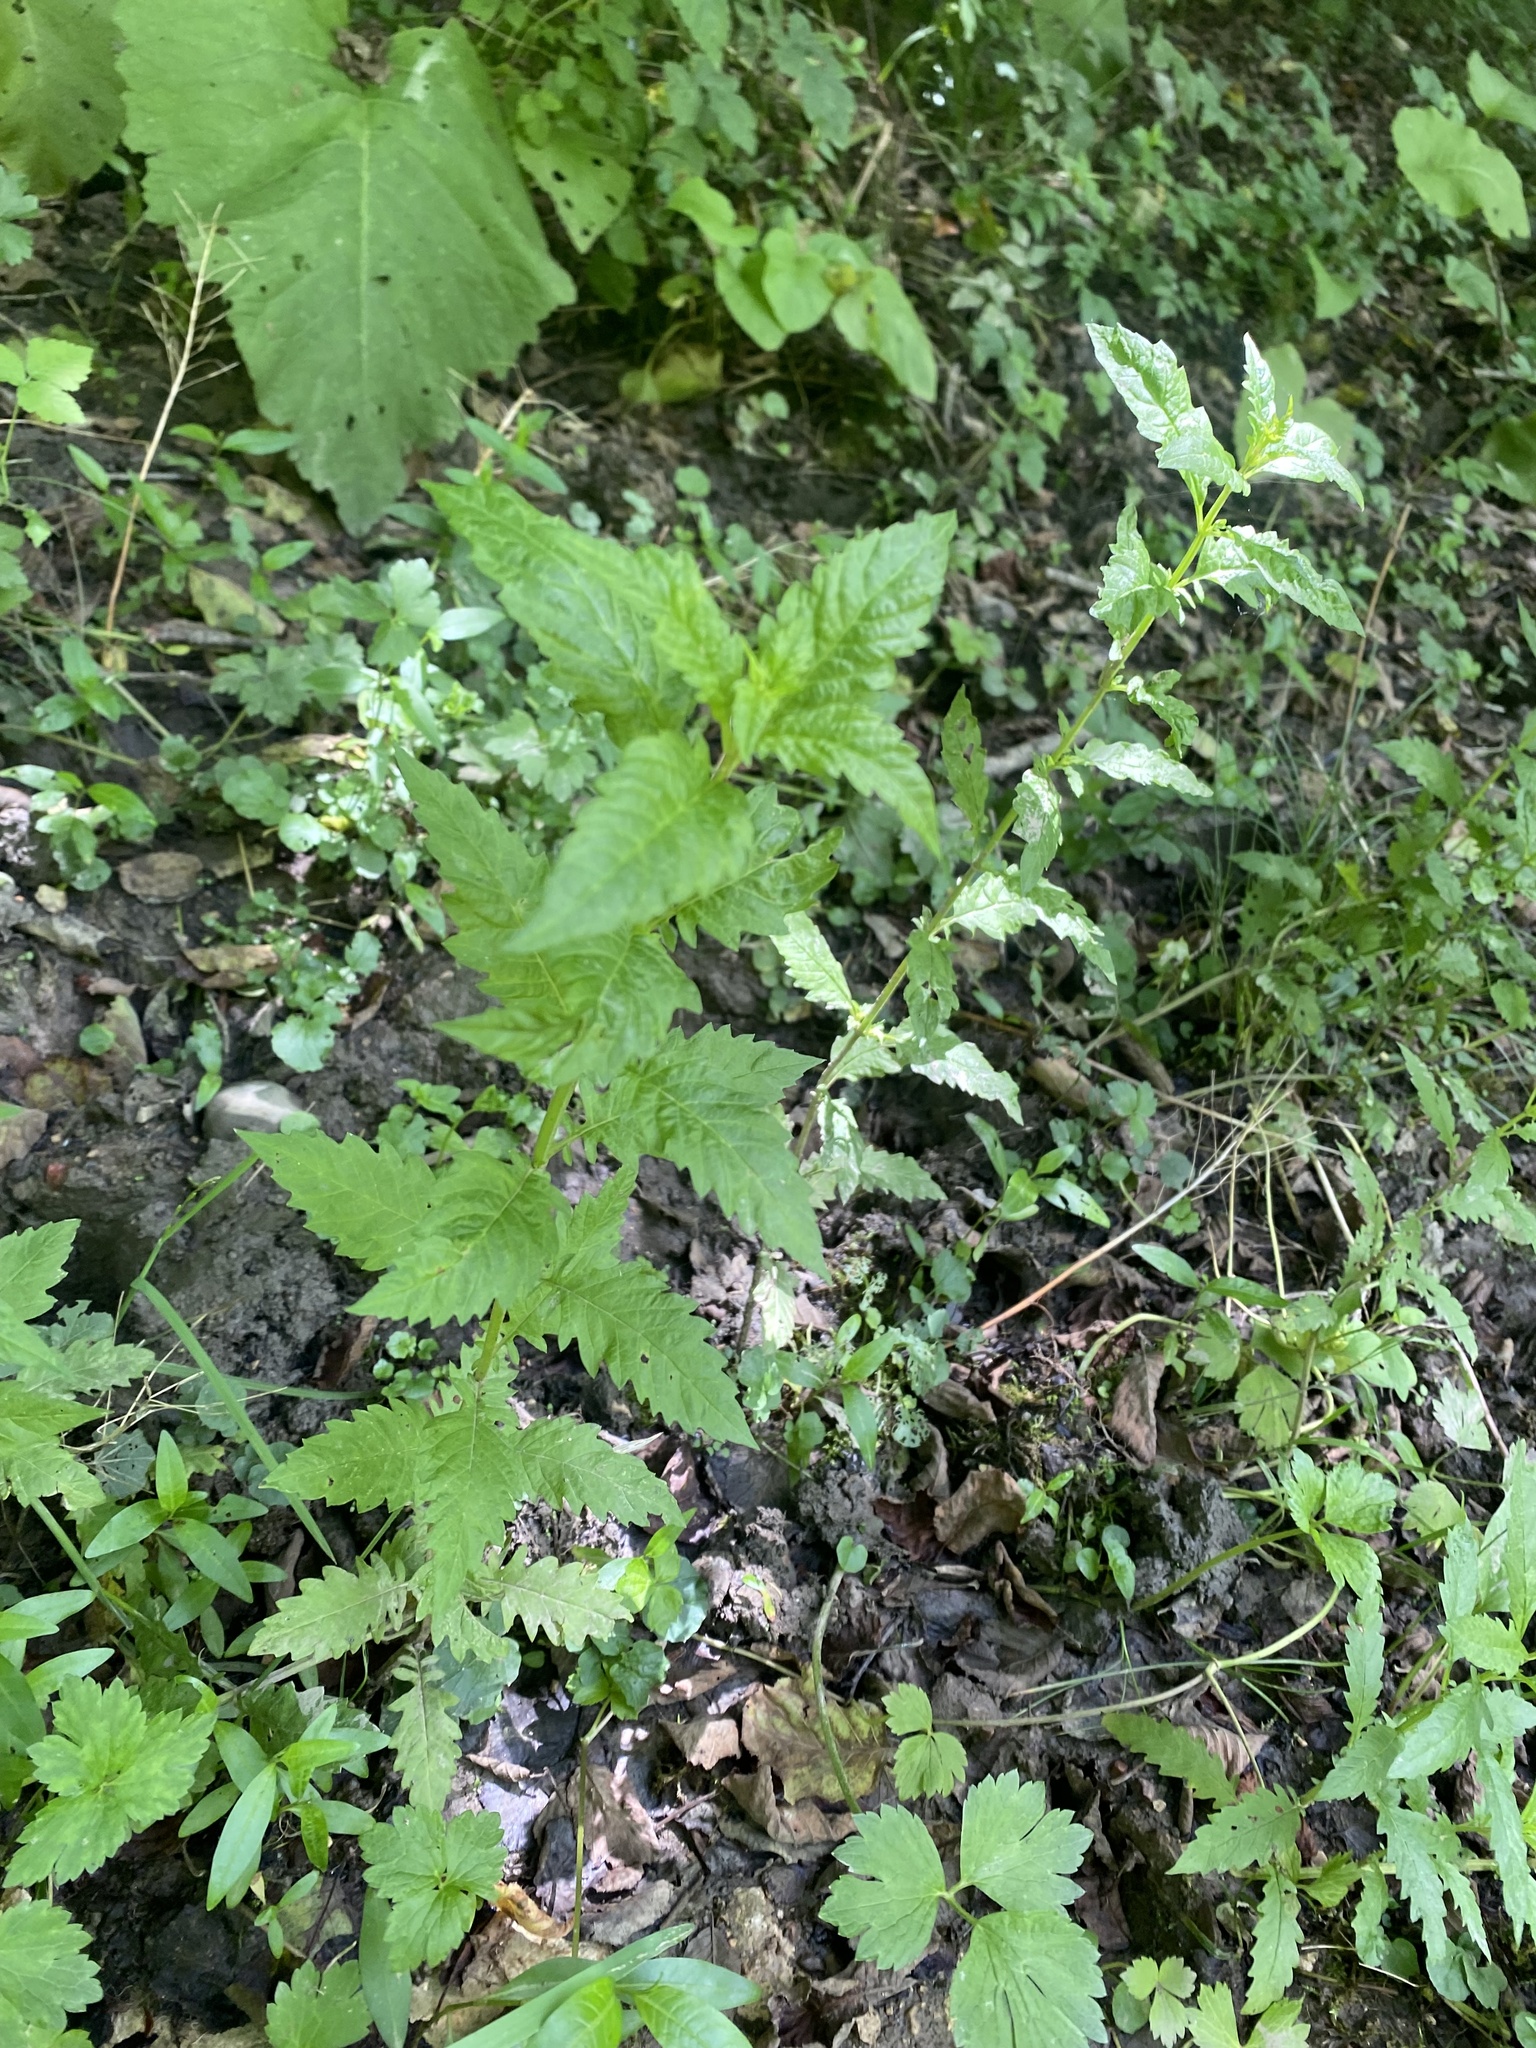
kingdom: Plantae
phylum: Tracheophyta
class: Magnoliopsida
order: Lamiales
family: Lamiaceae
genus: Lycopus
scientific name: Lycopus europaeus
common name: European bugleweed
